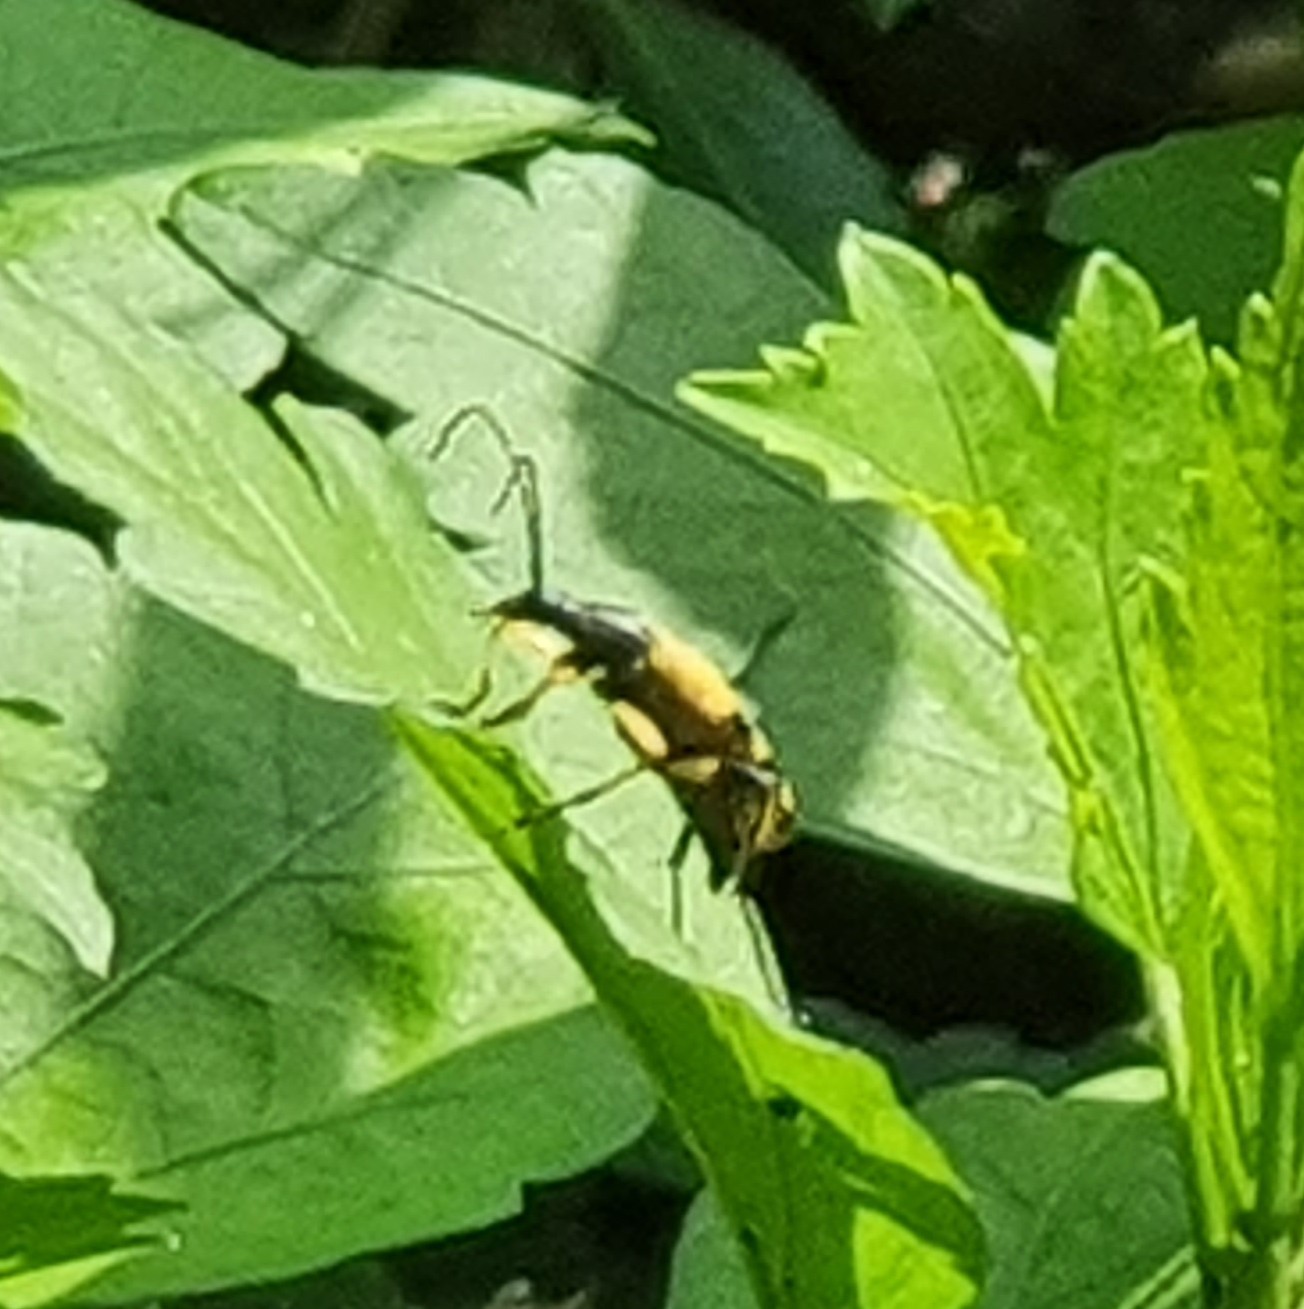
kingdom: Animalia
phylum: Arthropoda
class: Insecta
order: Coleoptera
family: Cerambycidae
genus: Rutpela
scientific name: Rutpela maculata
